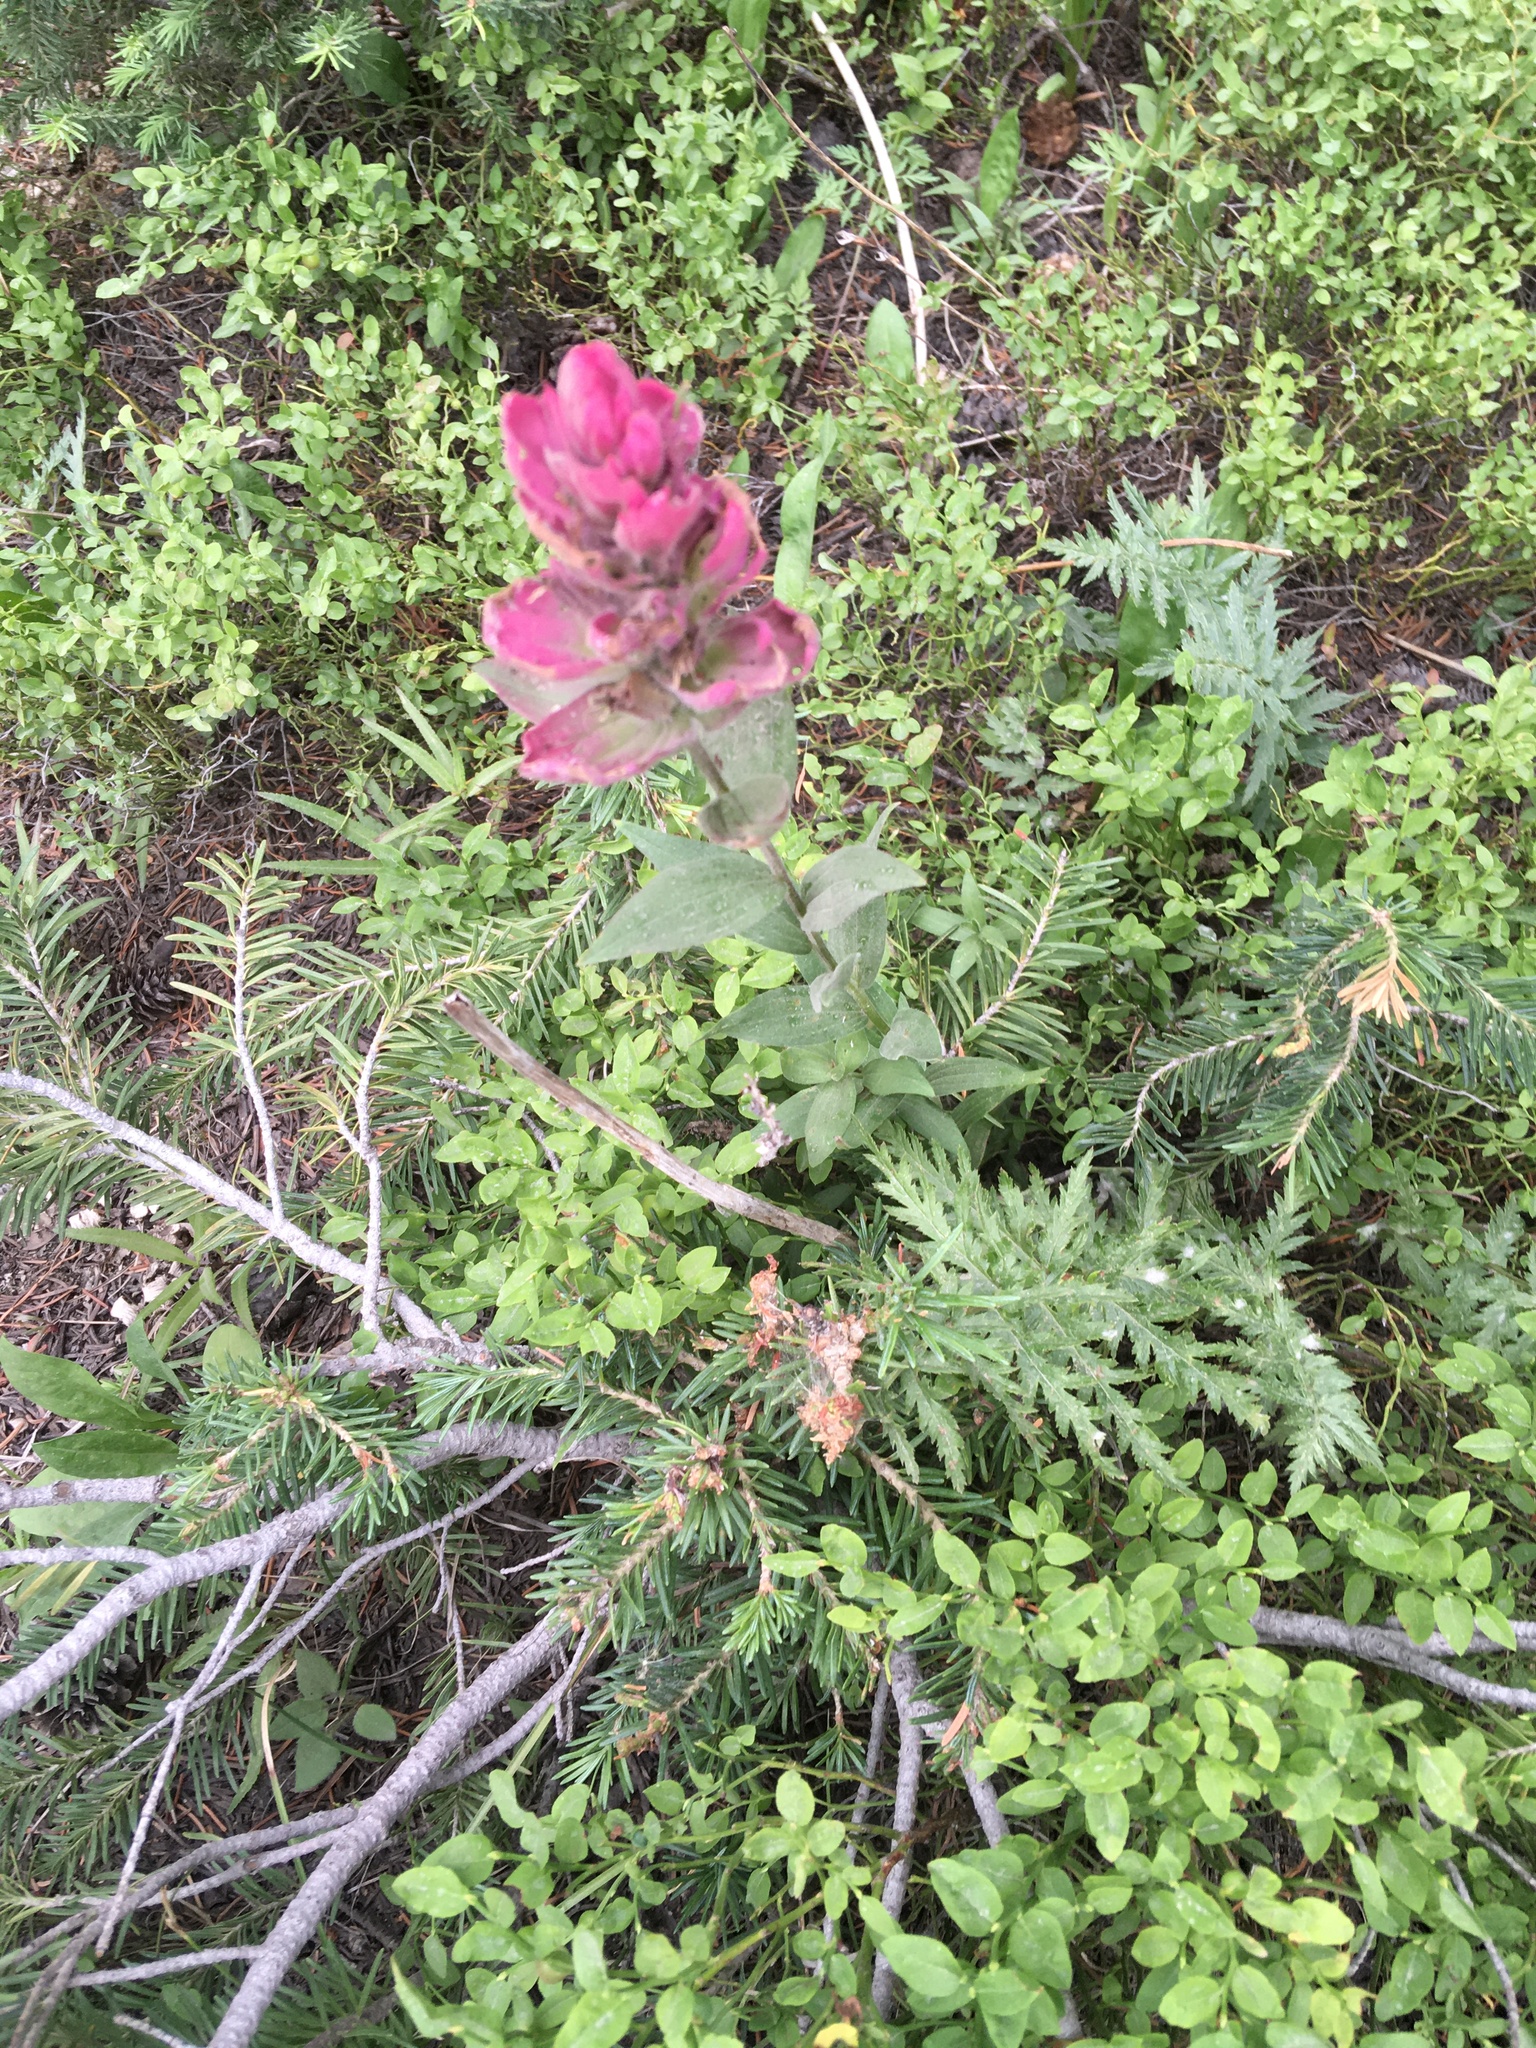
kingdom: Plantae
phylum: Tracheophyta
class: Magnoliopsida
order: Lamiales
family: Orobanchaceae
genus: Castilleja
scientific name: Castilleja rhexifolia
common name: Rocky mountain paintbrush
